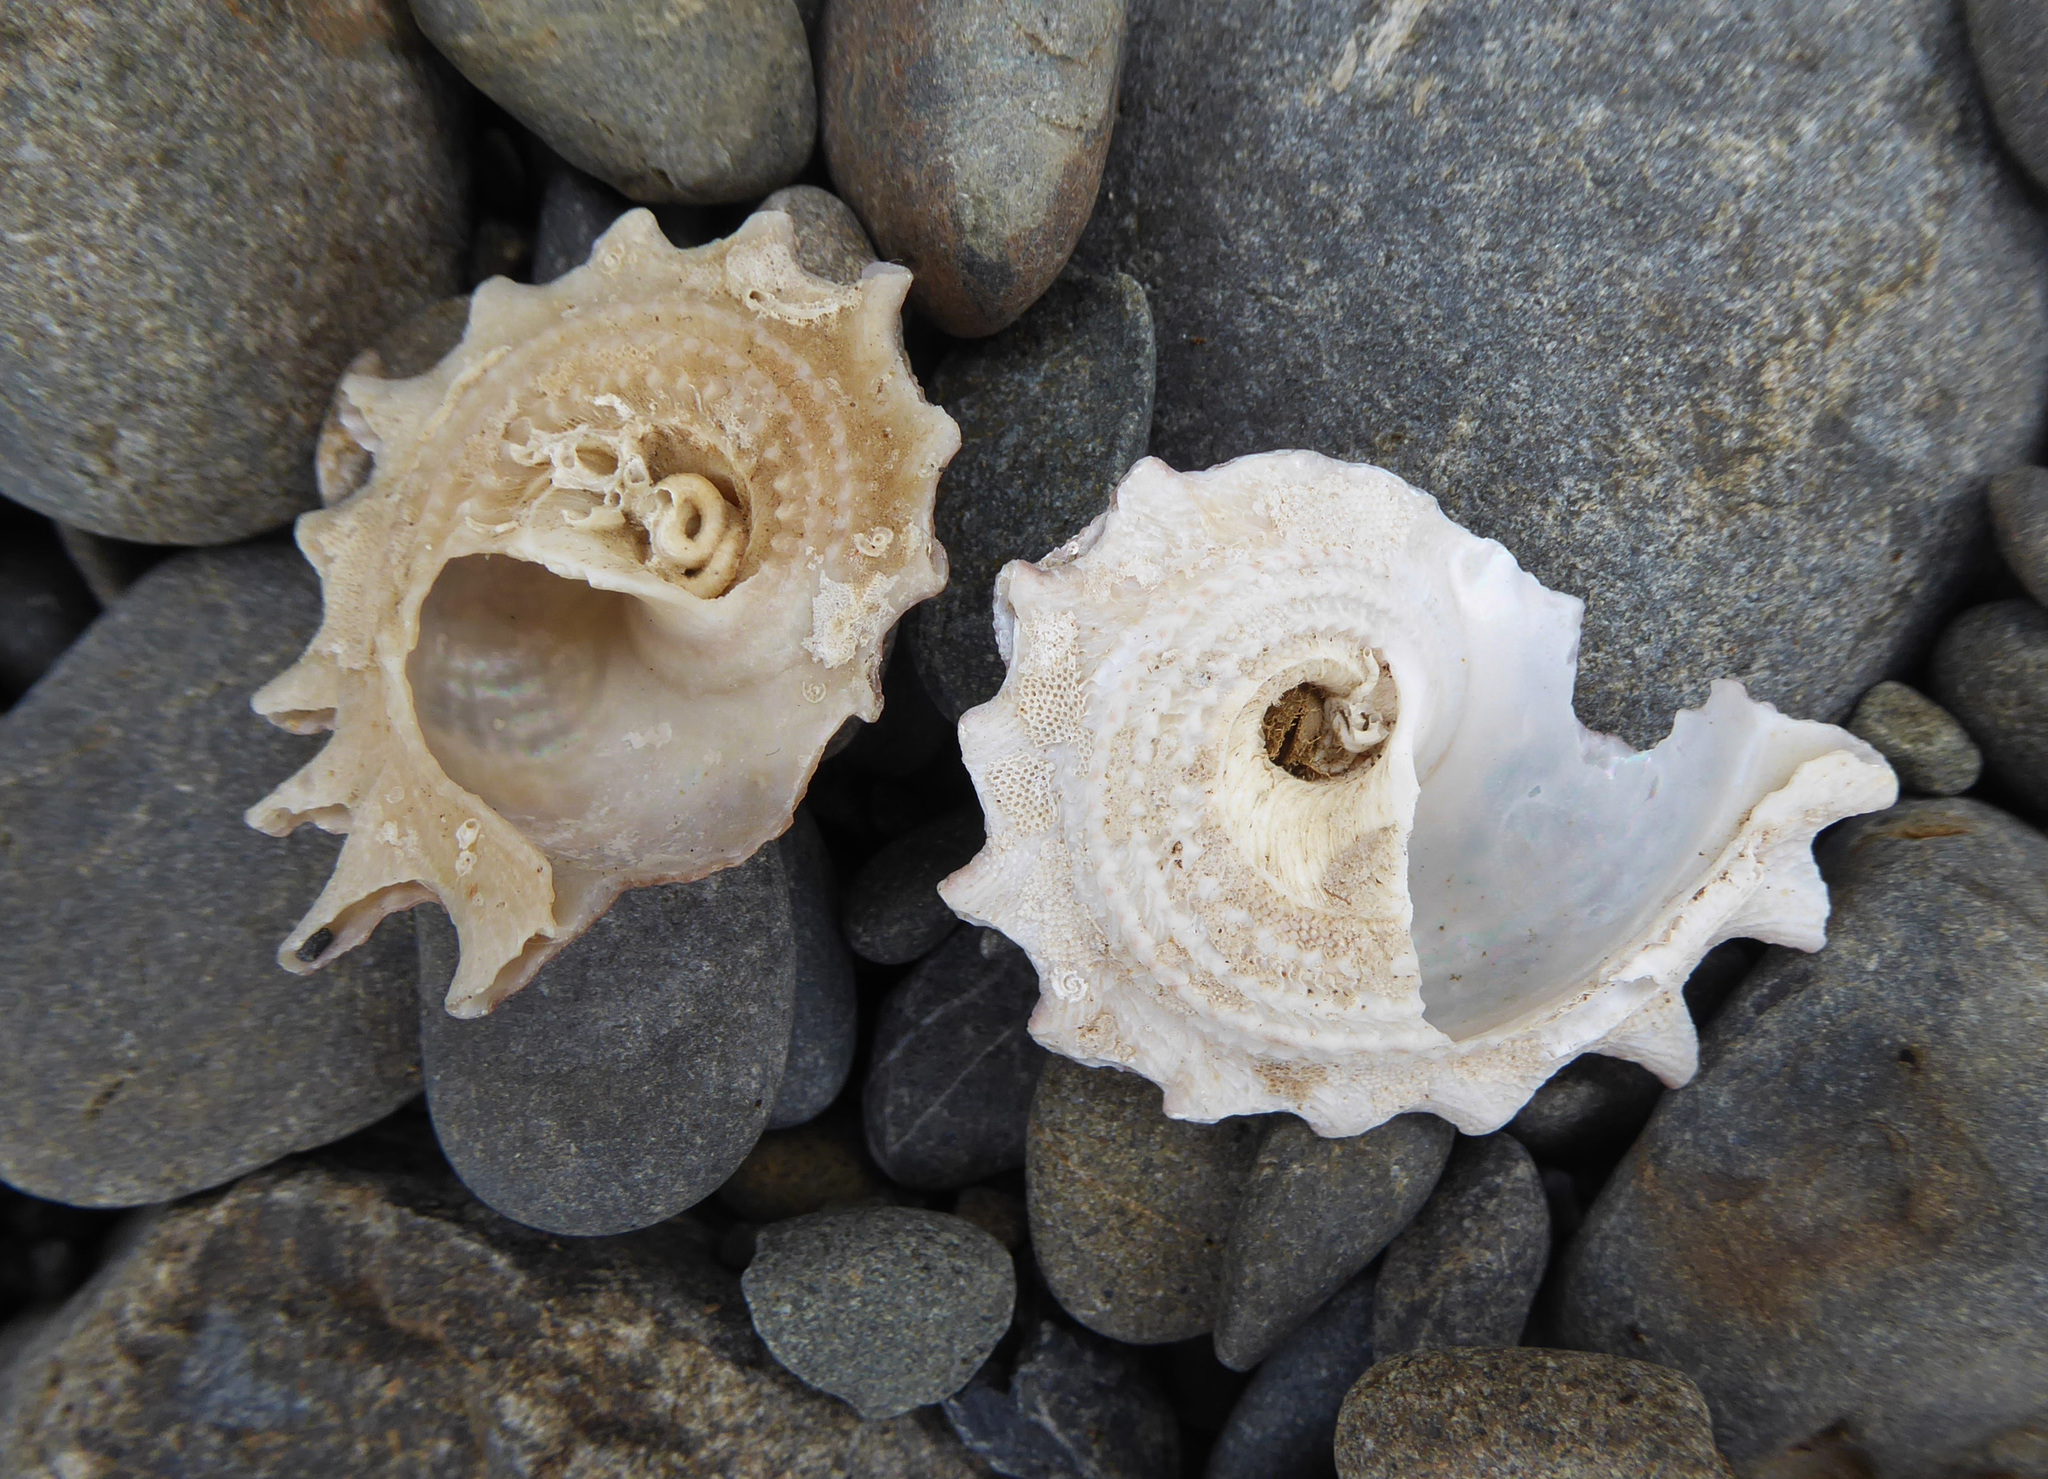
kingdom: Animalia
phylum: Mollusca
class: Gastropoda
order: Trochida
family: Turbinidae
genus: Astraea
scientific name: Astraea heliotropium
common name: Sun shell
